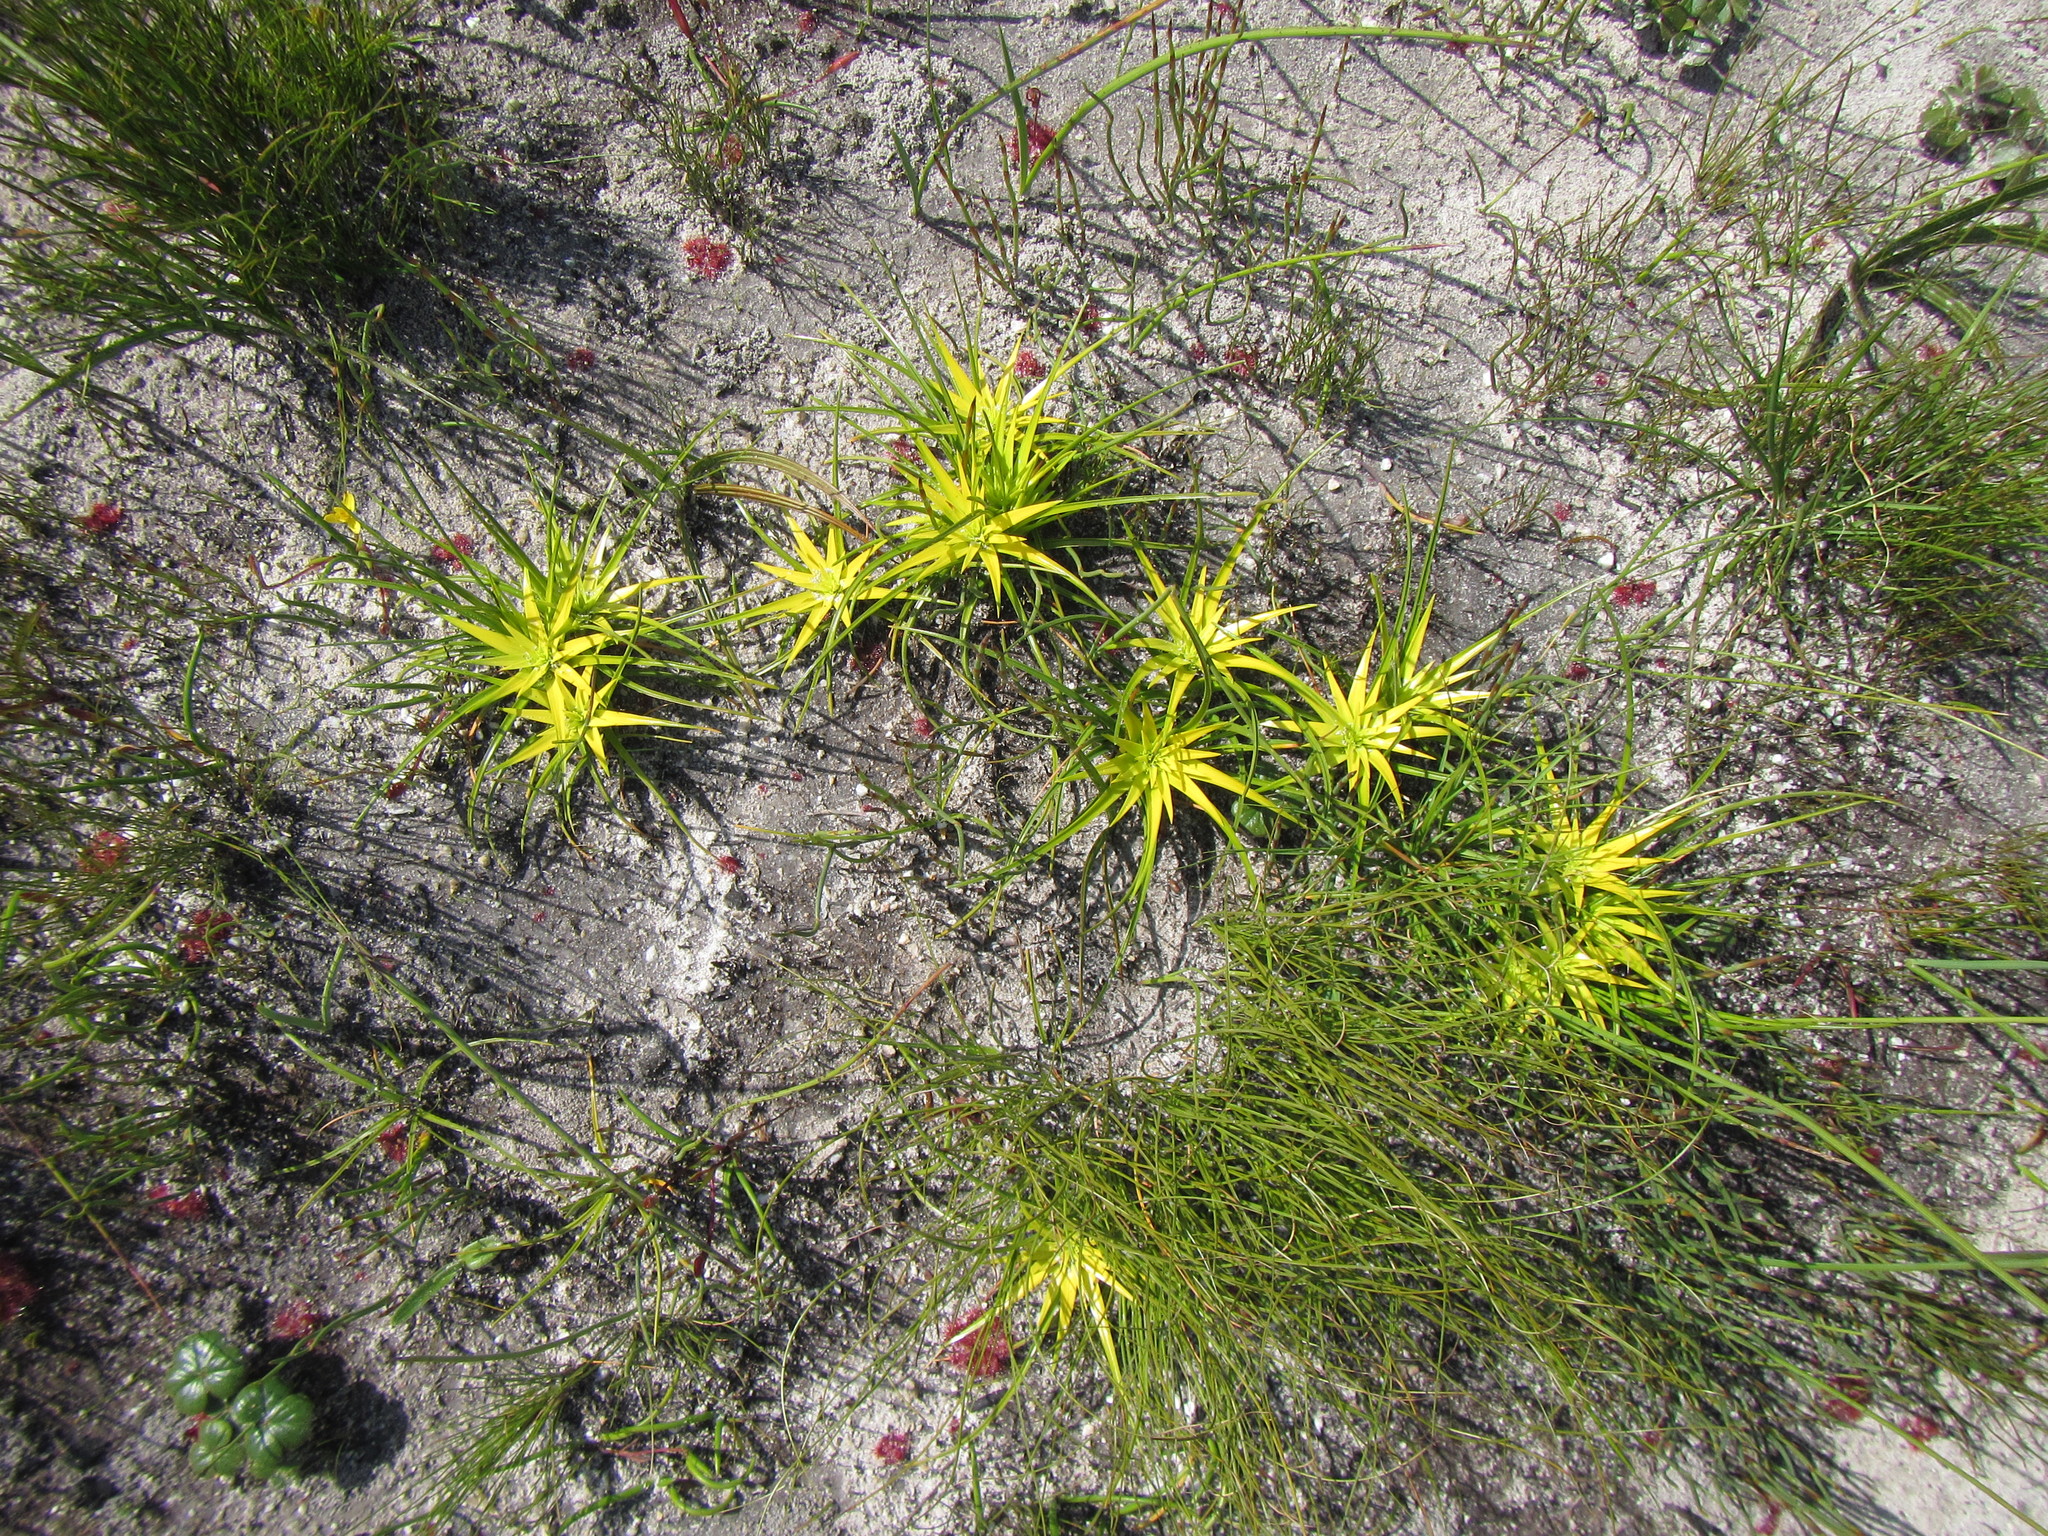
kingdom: Plantae
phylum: Tracheophyta
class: Liliopsida
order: Poales
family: Cyperaceae
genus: Ficinia
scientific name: Ficinia radiata
